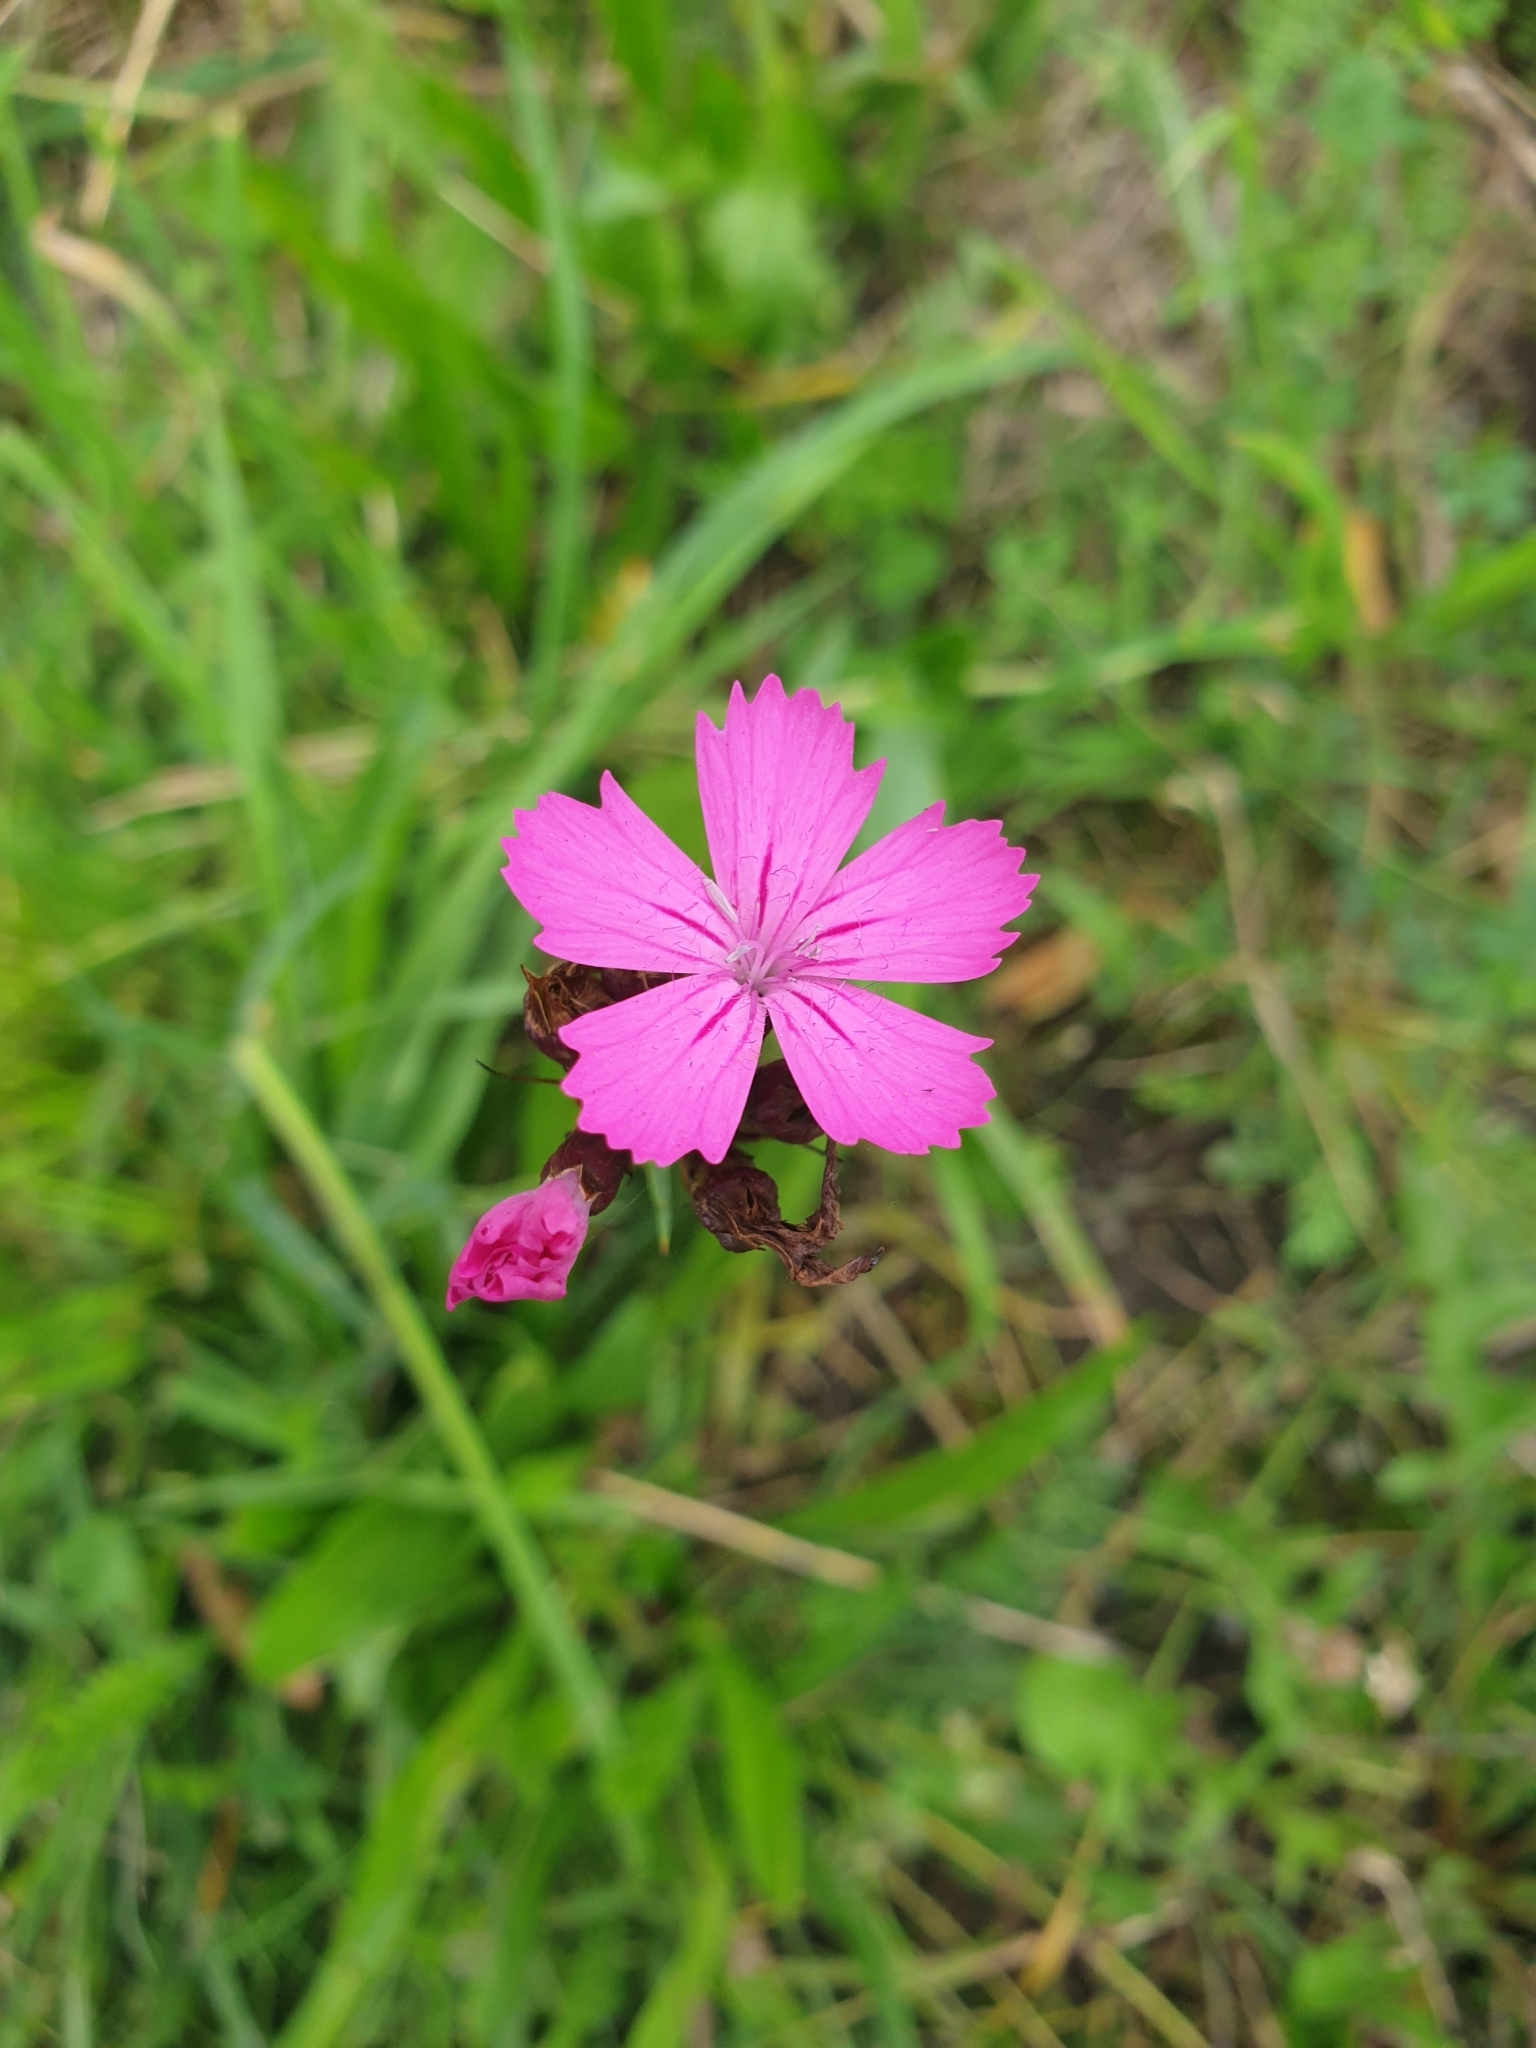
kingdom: Plantae
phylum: Tracheophyta
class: Magnoliopsida
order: Caryophyllales
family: Caryophyllaceae
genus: Dianthus
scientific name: Dianthus carthusianorum
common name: Carthusian pink
